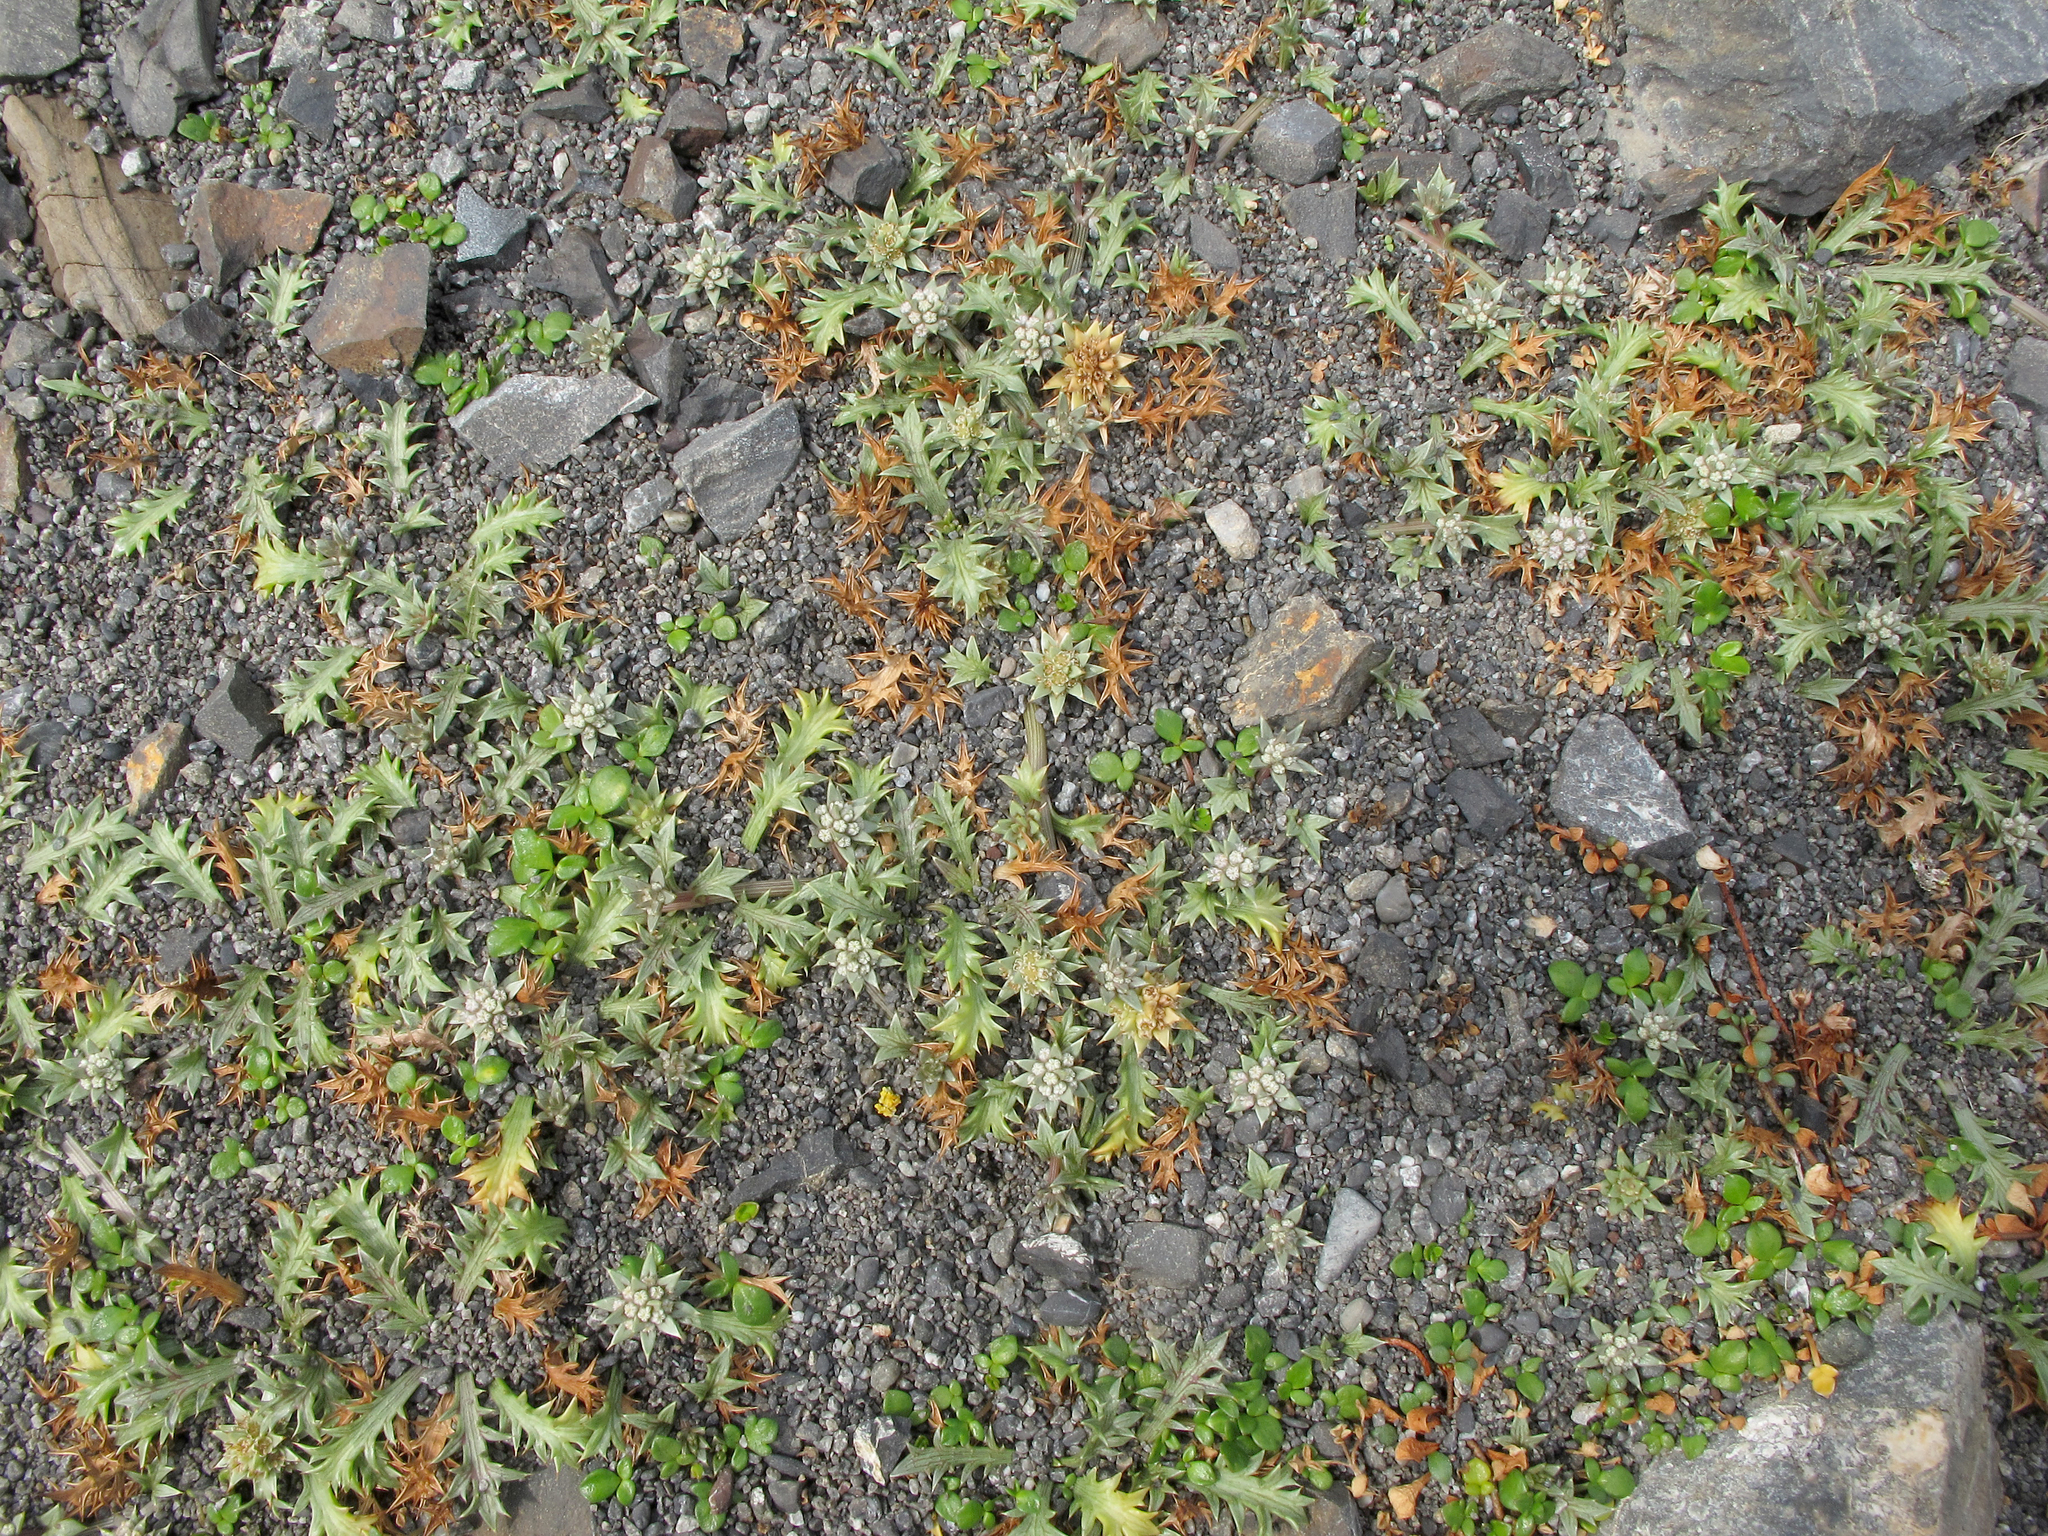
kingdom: Plantae
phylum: Tracheophyta
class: Magnoliopsida
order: Apiales
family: Apiaceae
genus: Eryngium
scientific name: Eryngium vesiculosum
